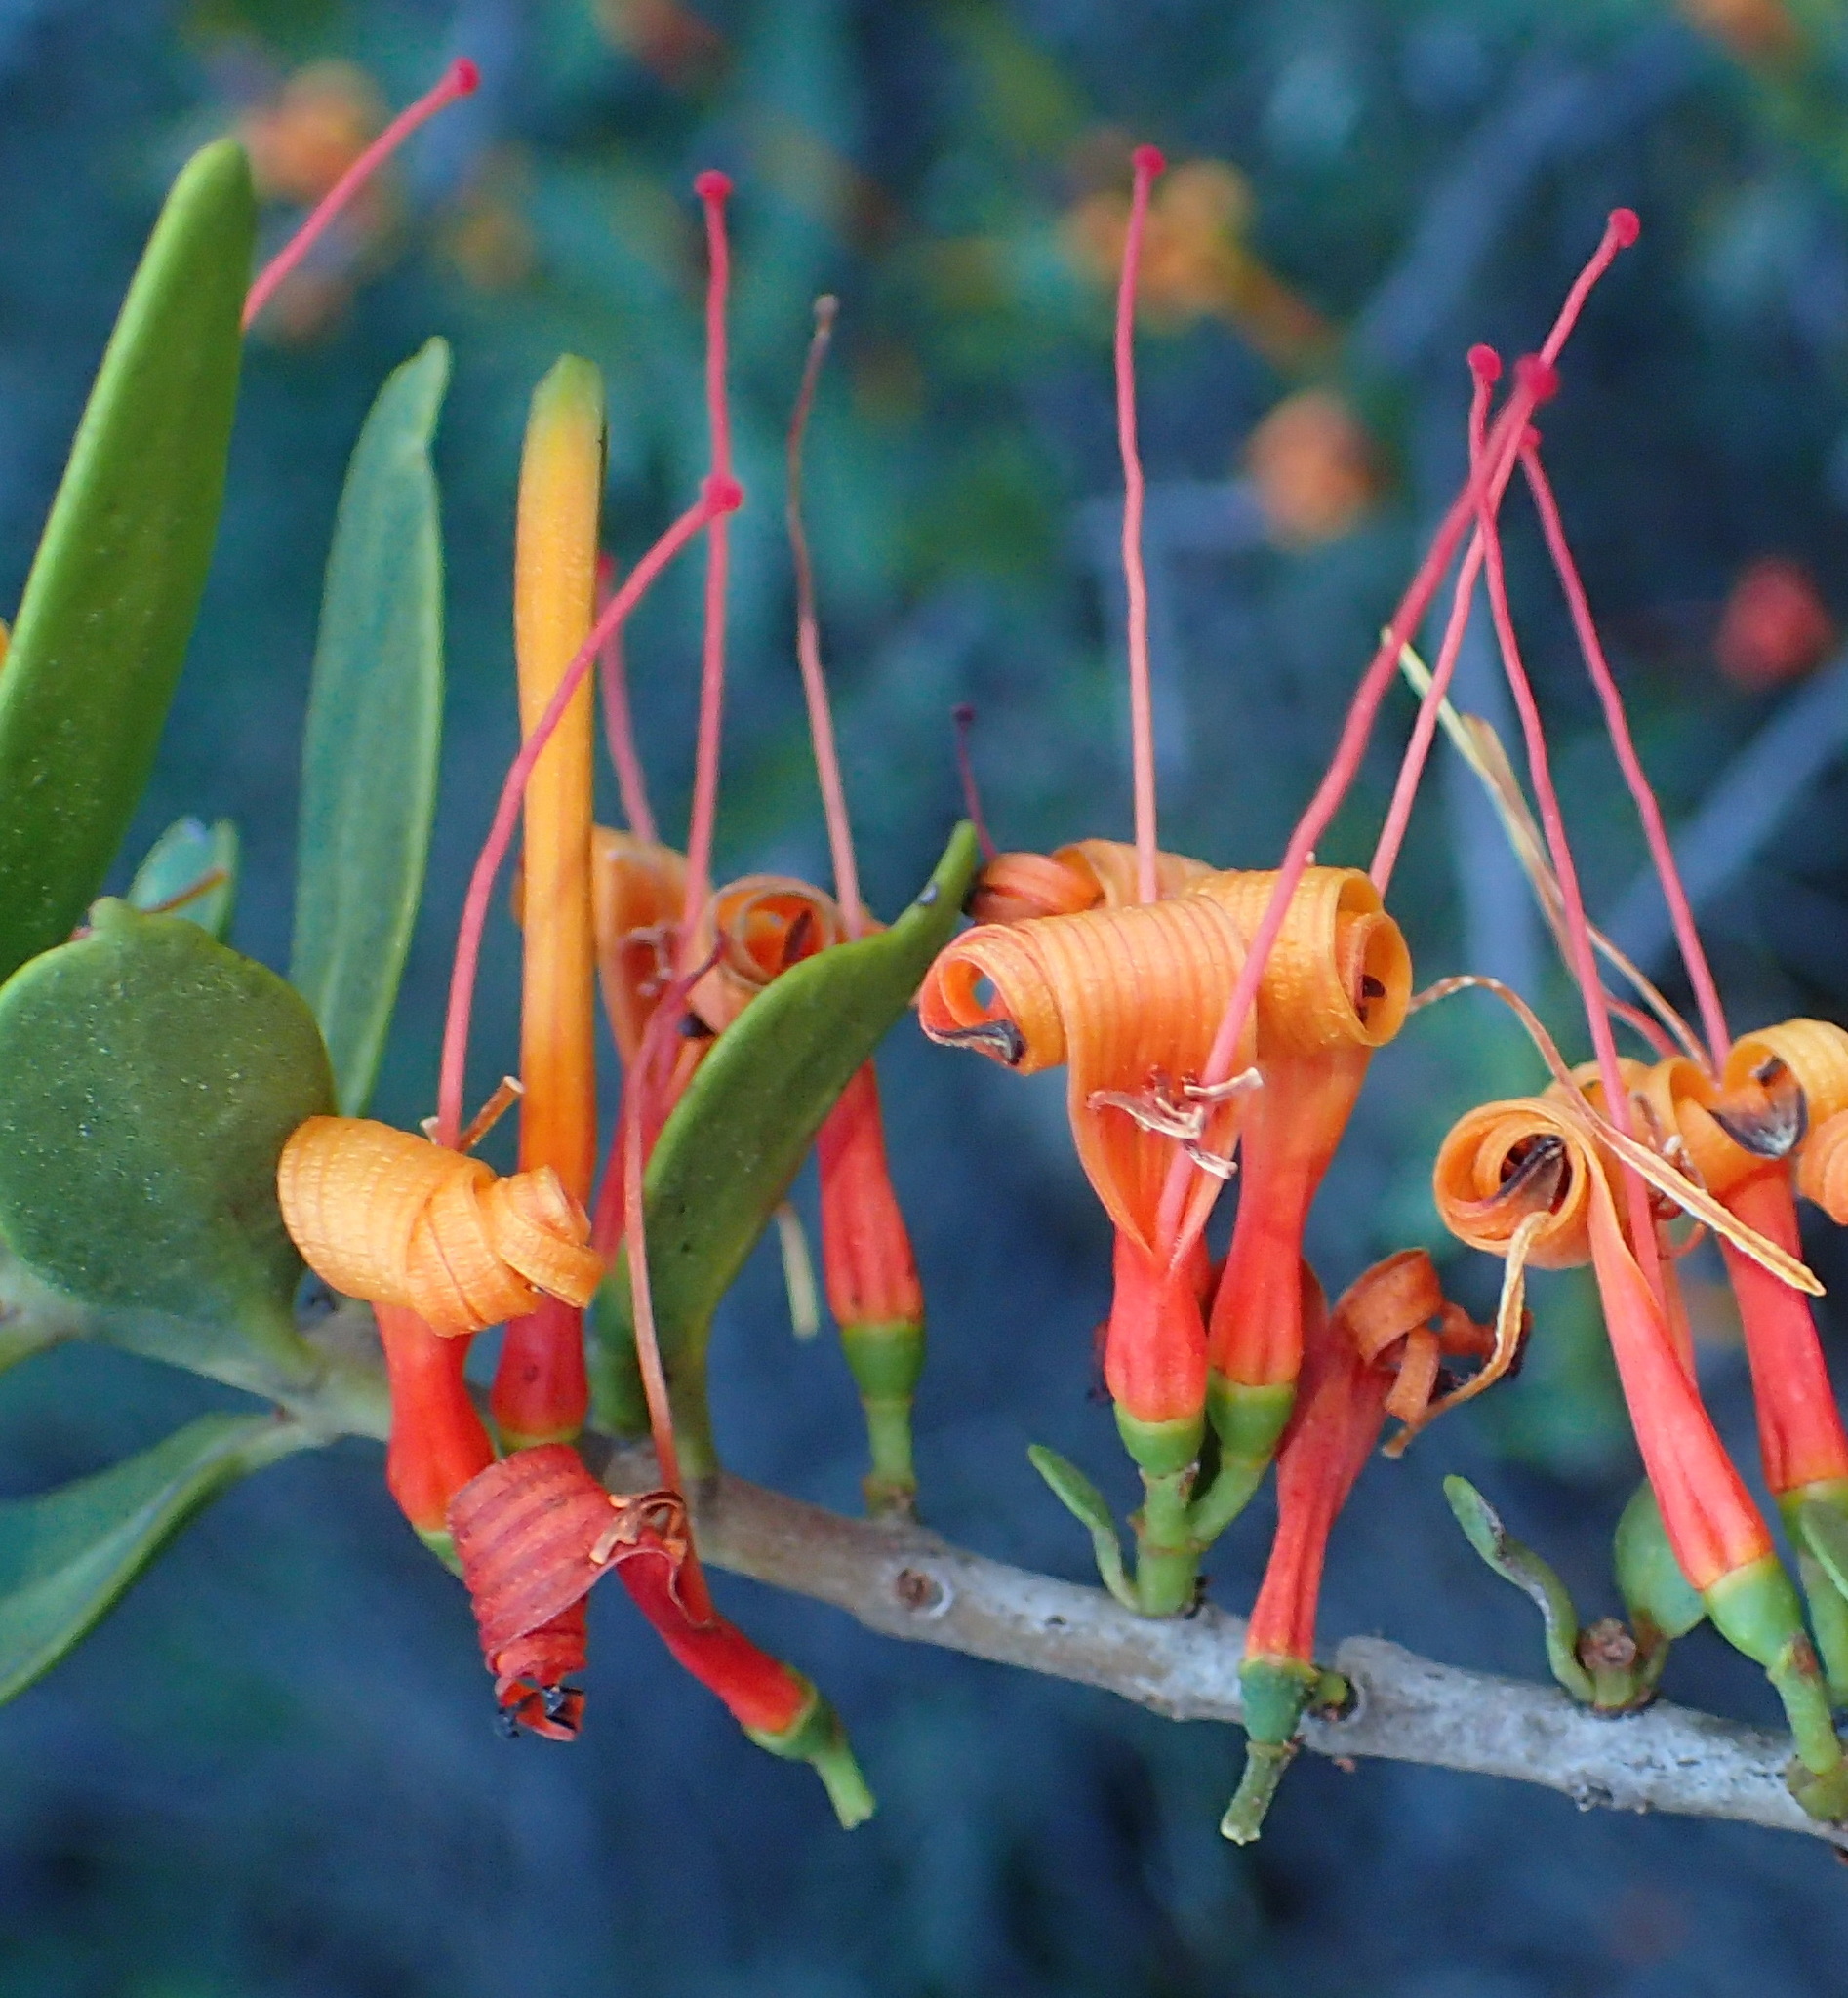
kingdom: Plantae
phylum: Tracheophyta
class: Magnoliopsida
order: Santalales
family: Loranthaceae
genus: Moquiniella
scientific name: Moquiniella rubra
